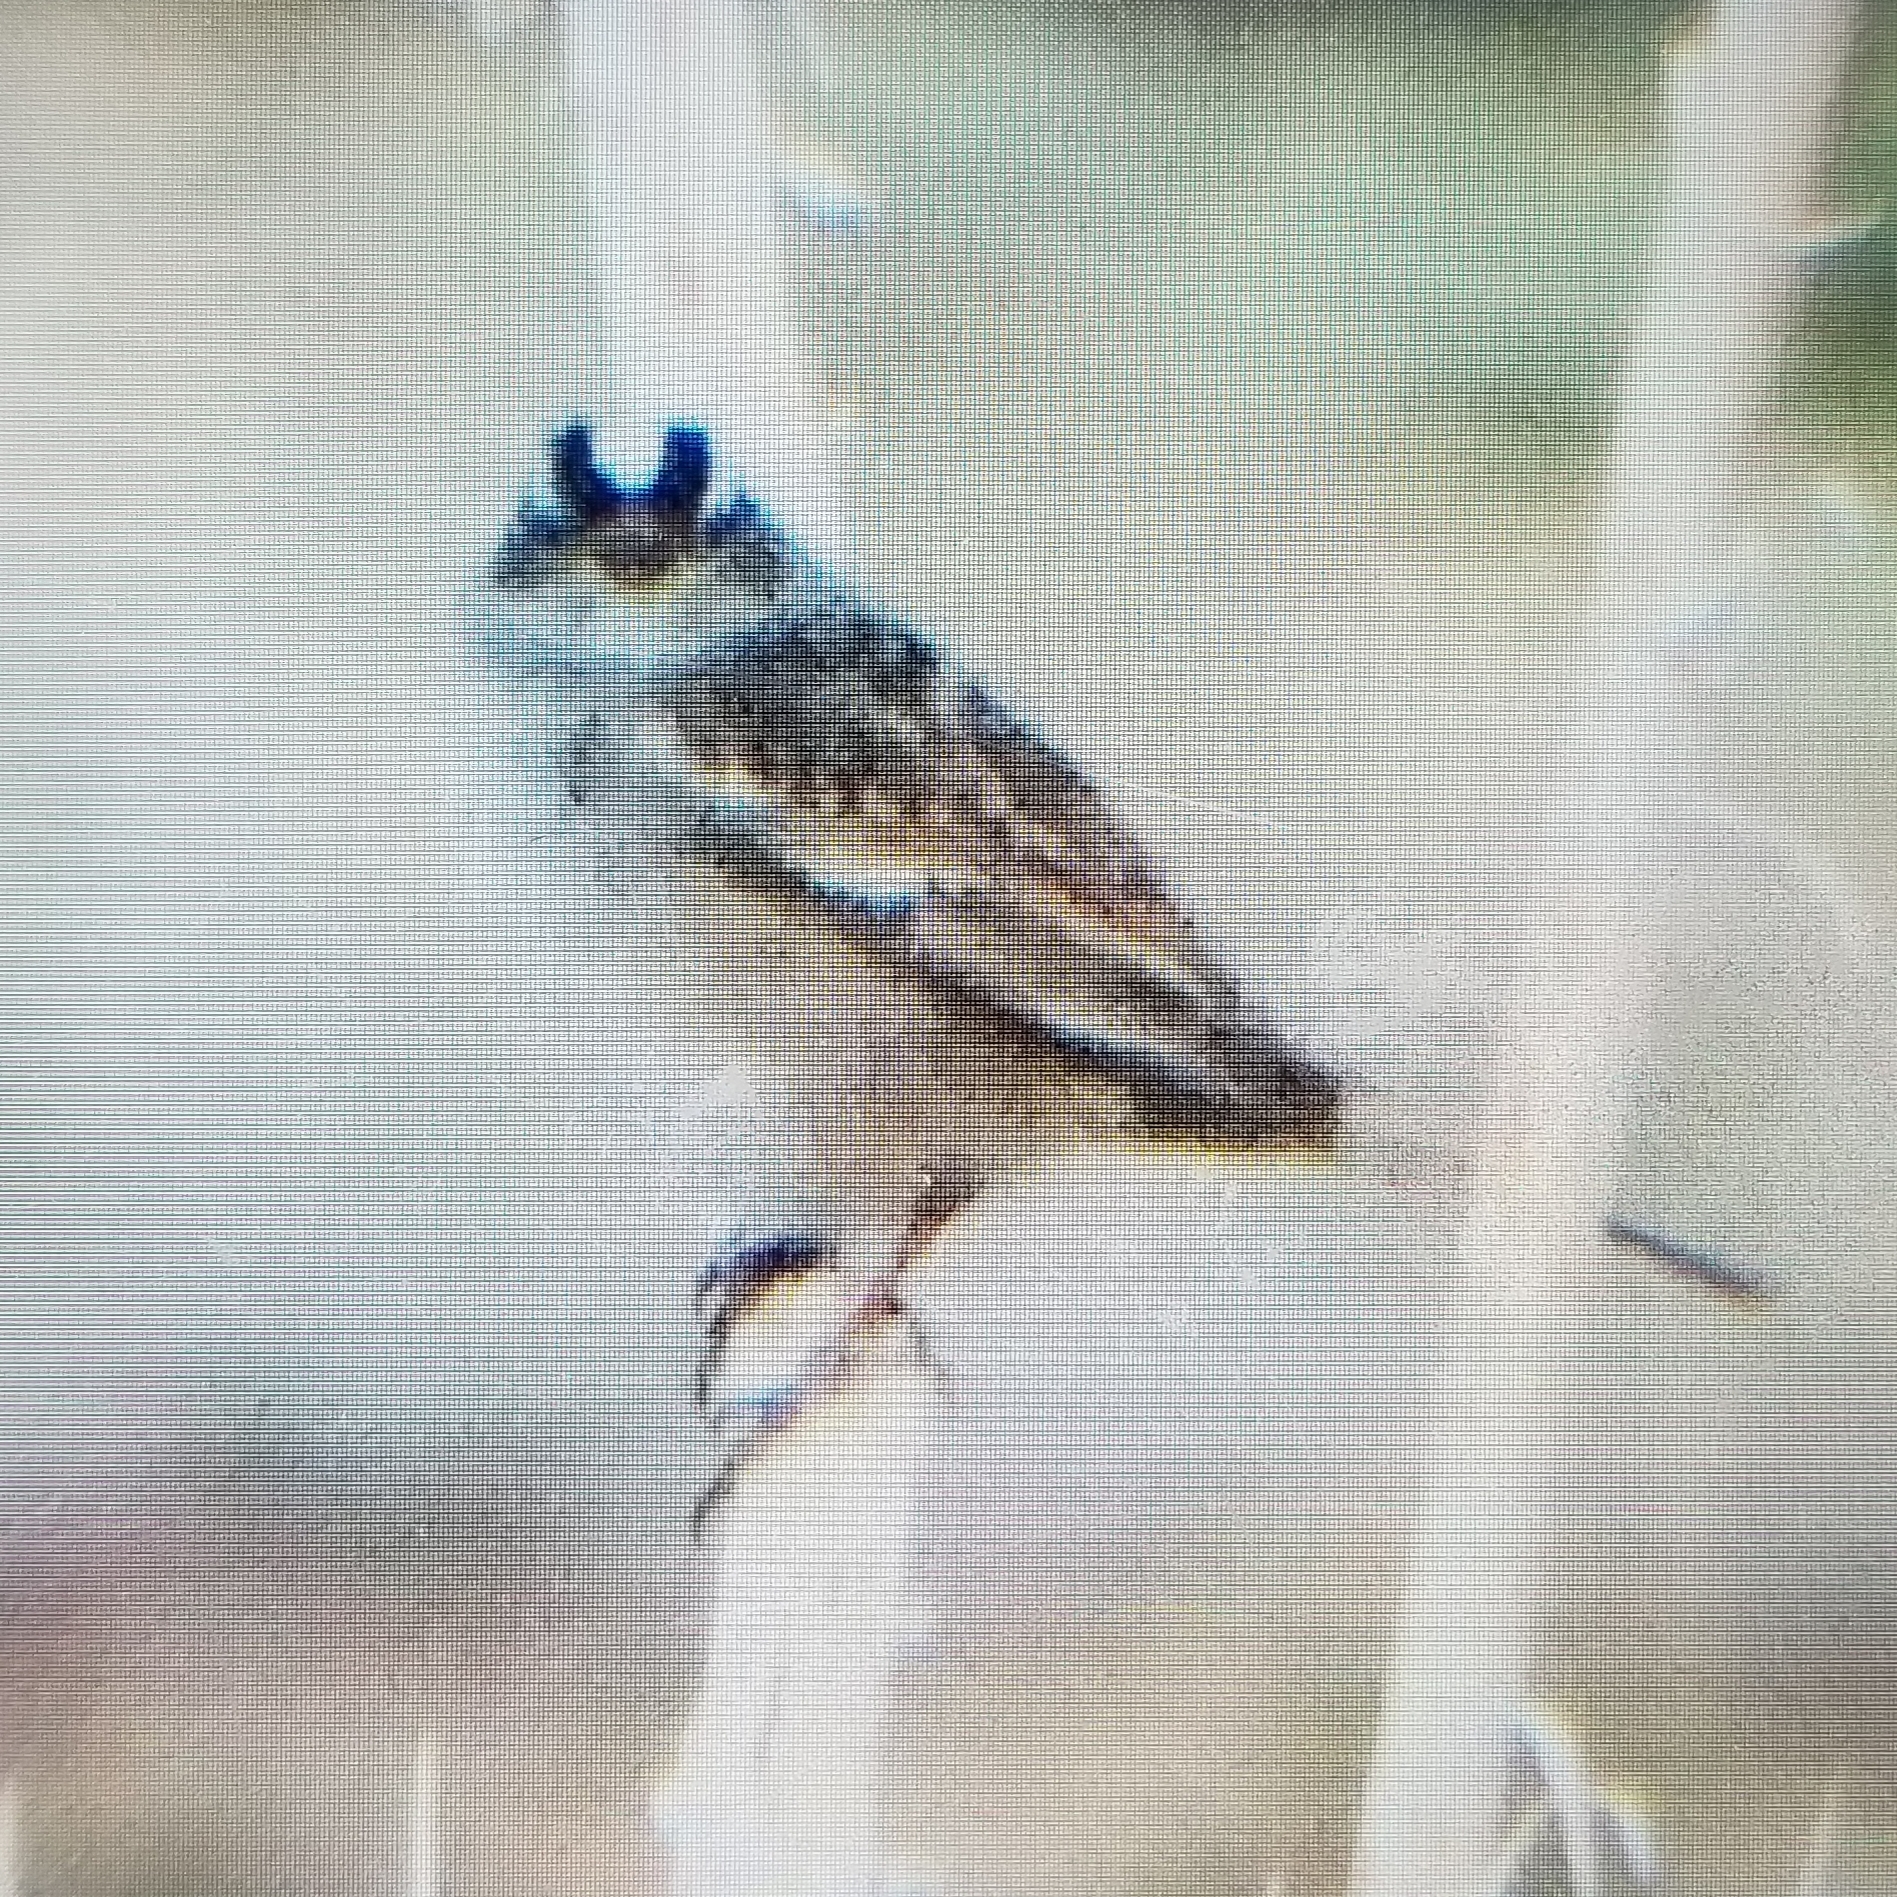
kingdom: Animalia
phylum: Chordata
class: Aves
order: Passeriformes
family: Passerellidae
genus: Zonotrichia
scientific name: Zonotrichia leucophrys
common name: White-crowned sparrow
